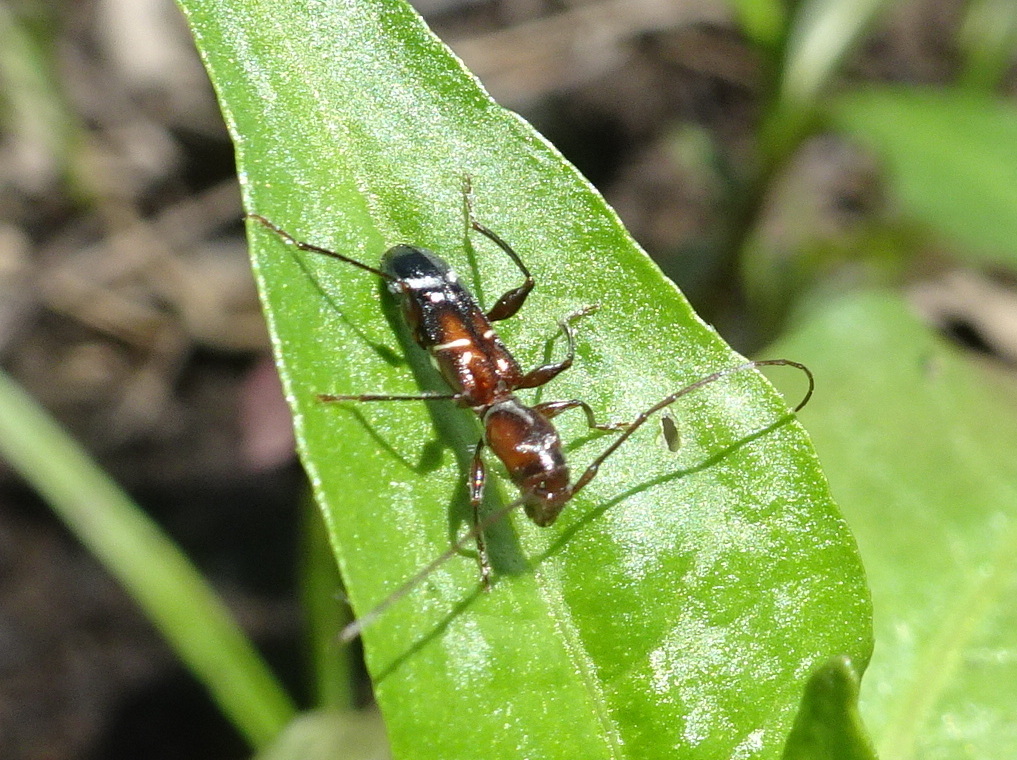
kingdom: Animalia
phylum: Arthropoda
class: Insecta
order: Coleoptera
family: Cerambycidae
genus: Euderces
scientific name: Euderces pini
